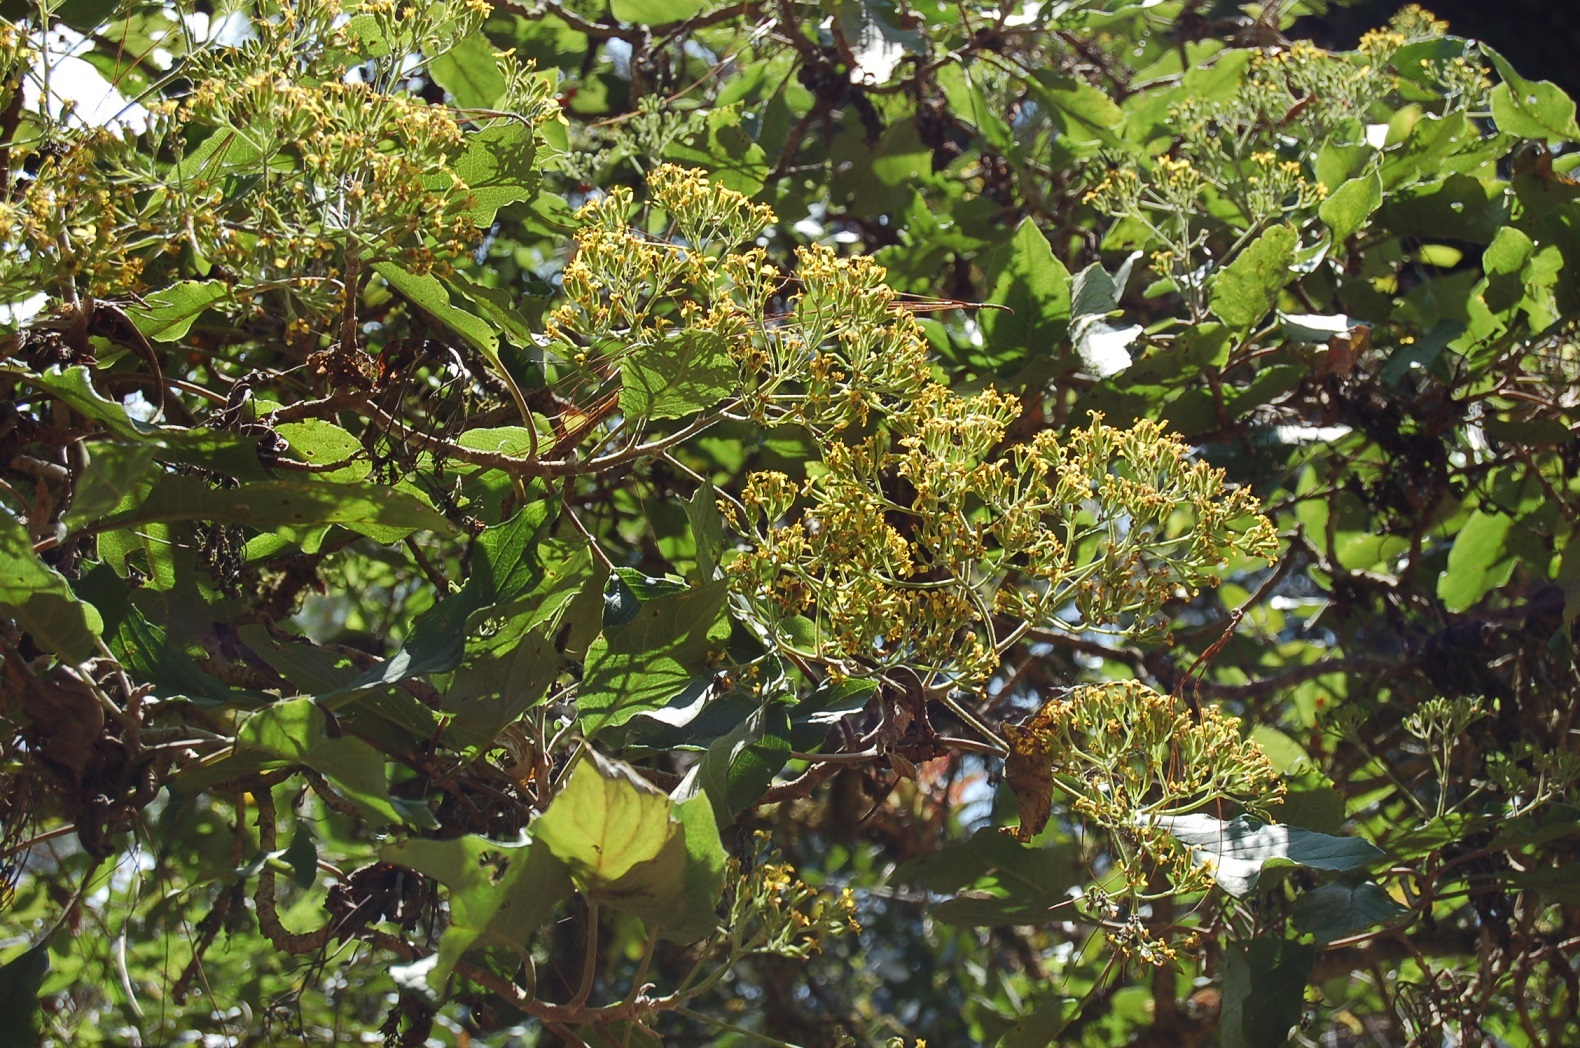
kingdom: Plantae
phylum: Tracheophyta
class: Magnoliopsida
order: Asterales
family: Asteraceae
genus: Roldana
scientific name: Roldana jurgensenii
